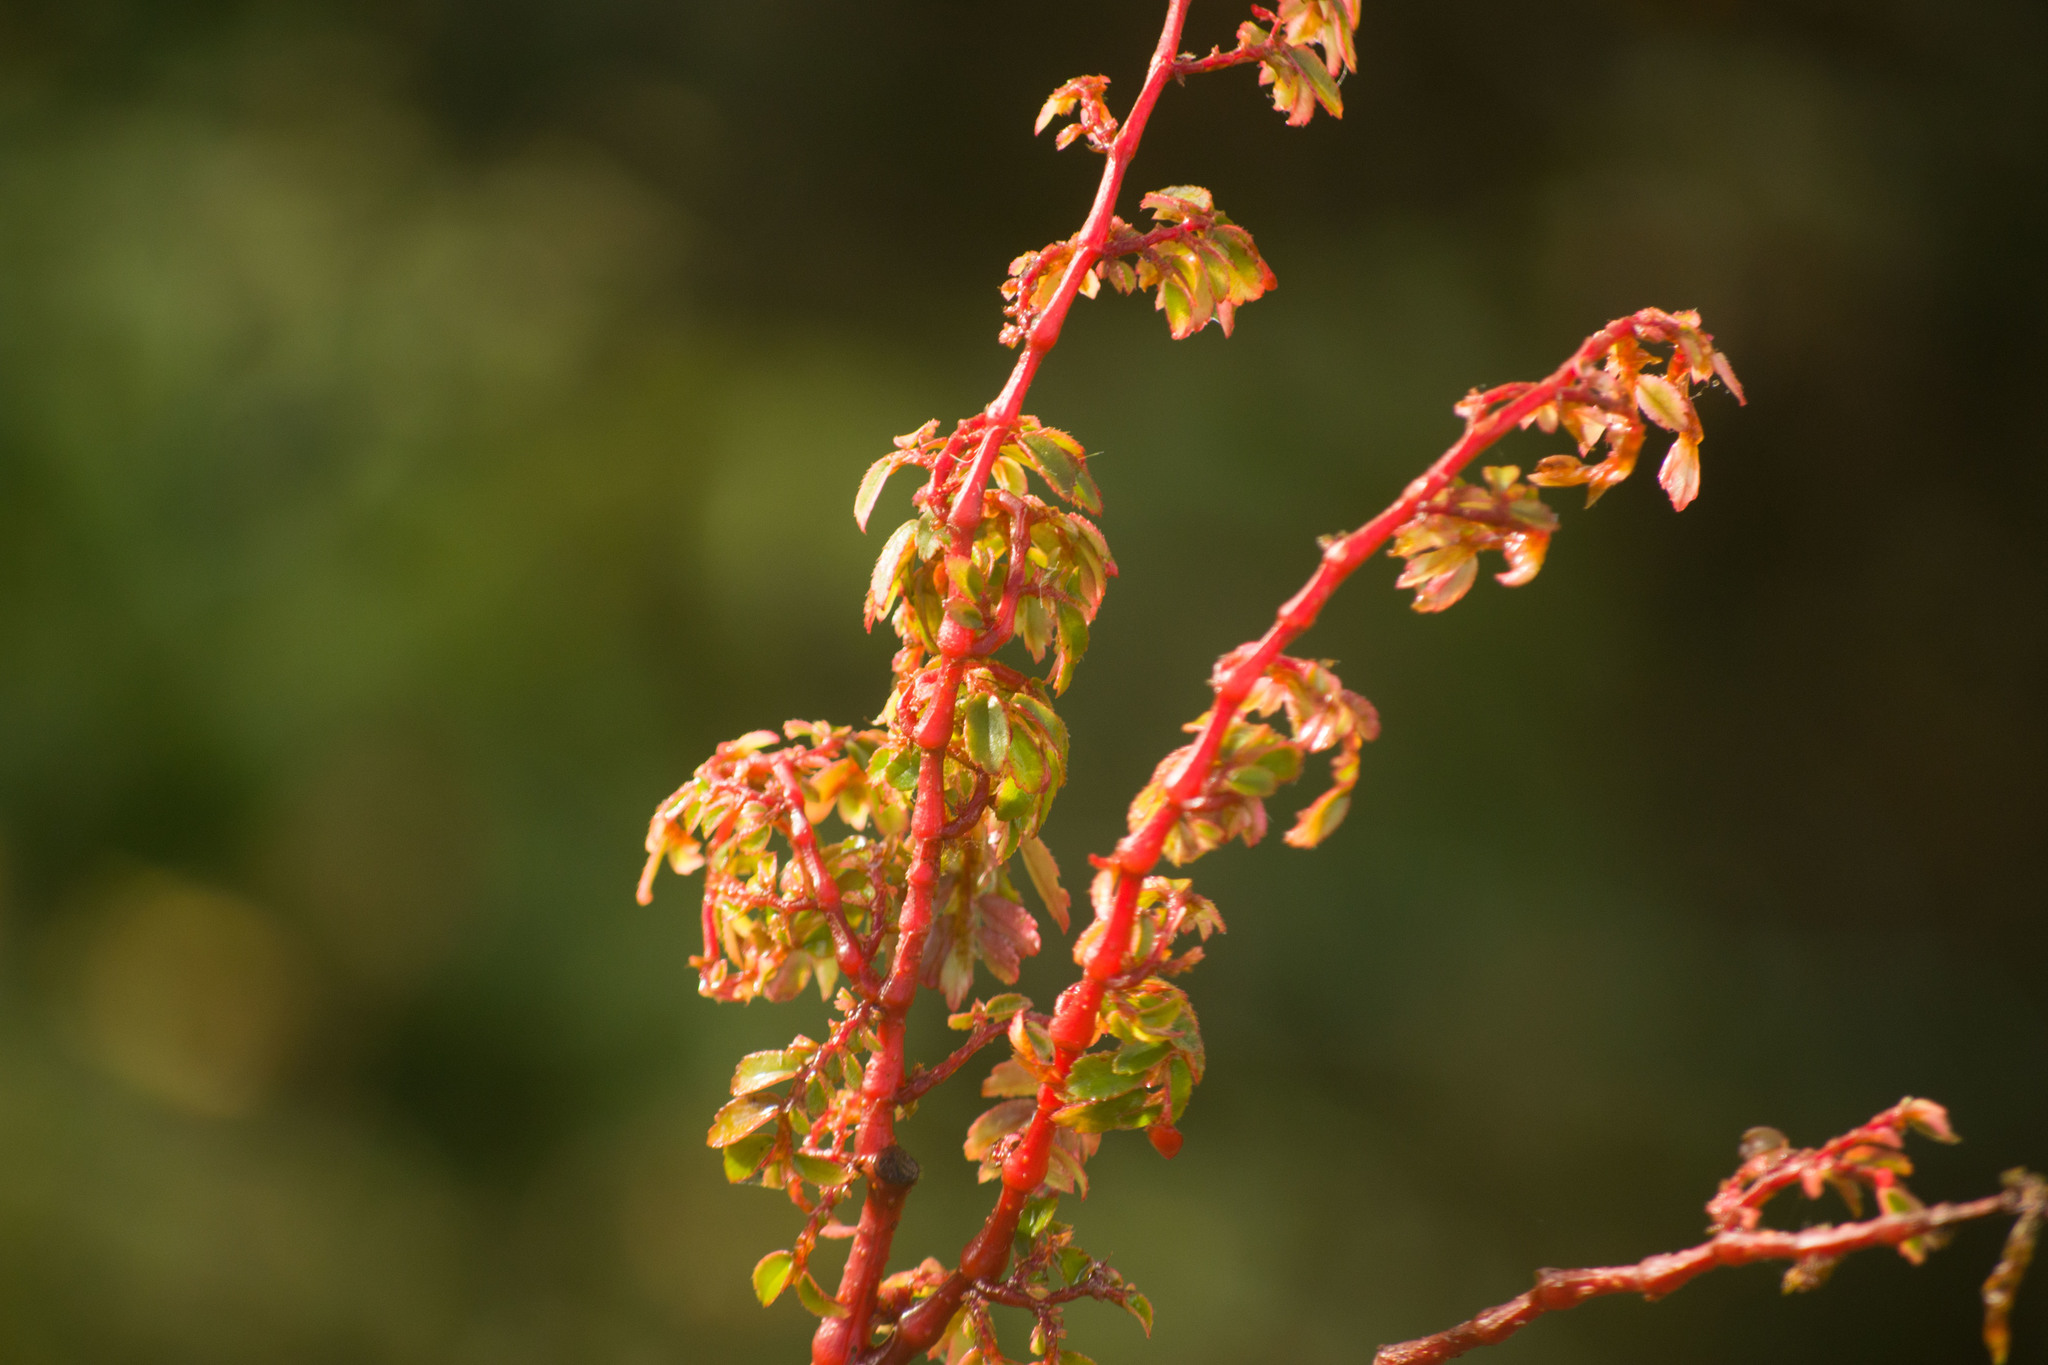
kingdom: Plantae
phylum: Tracheophyta
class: Magnoliopsida
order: Cucurbitales
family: Begoniaceae
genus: Begonia
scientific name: Begonia foliosa
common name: Fern begonia
